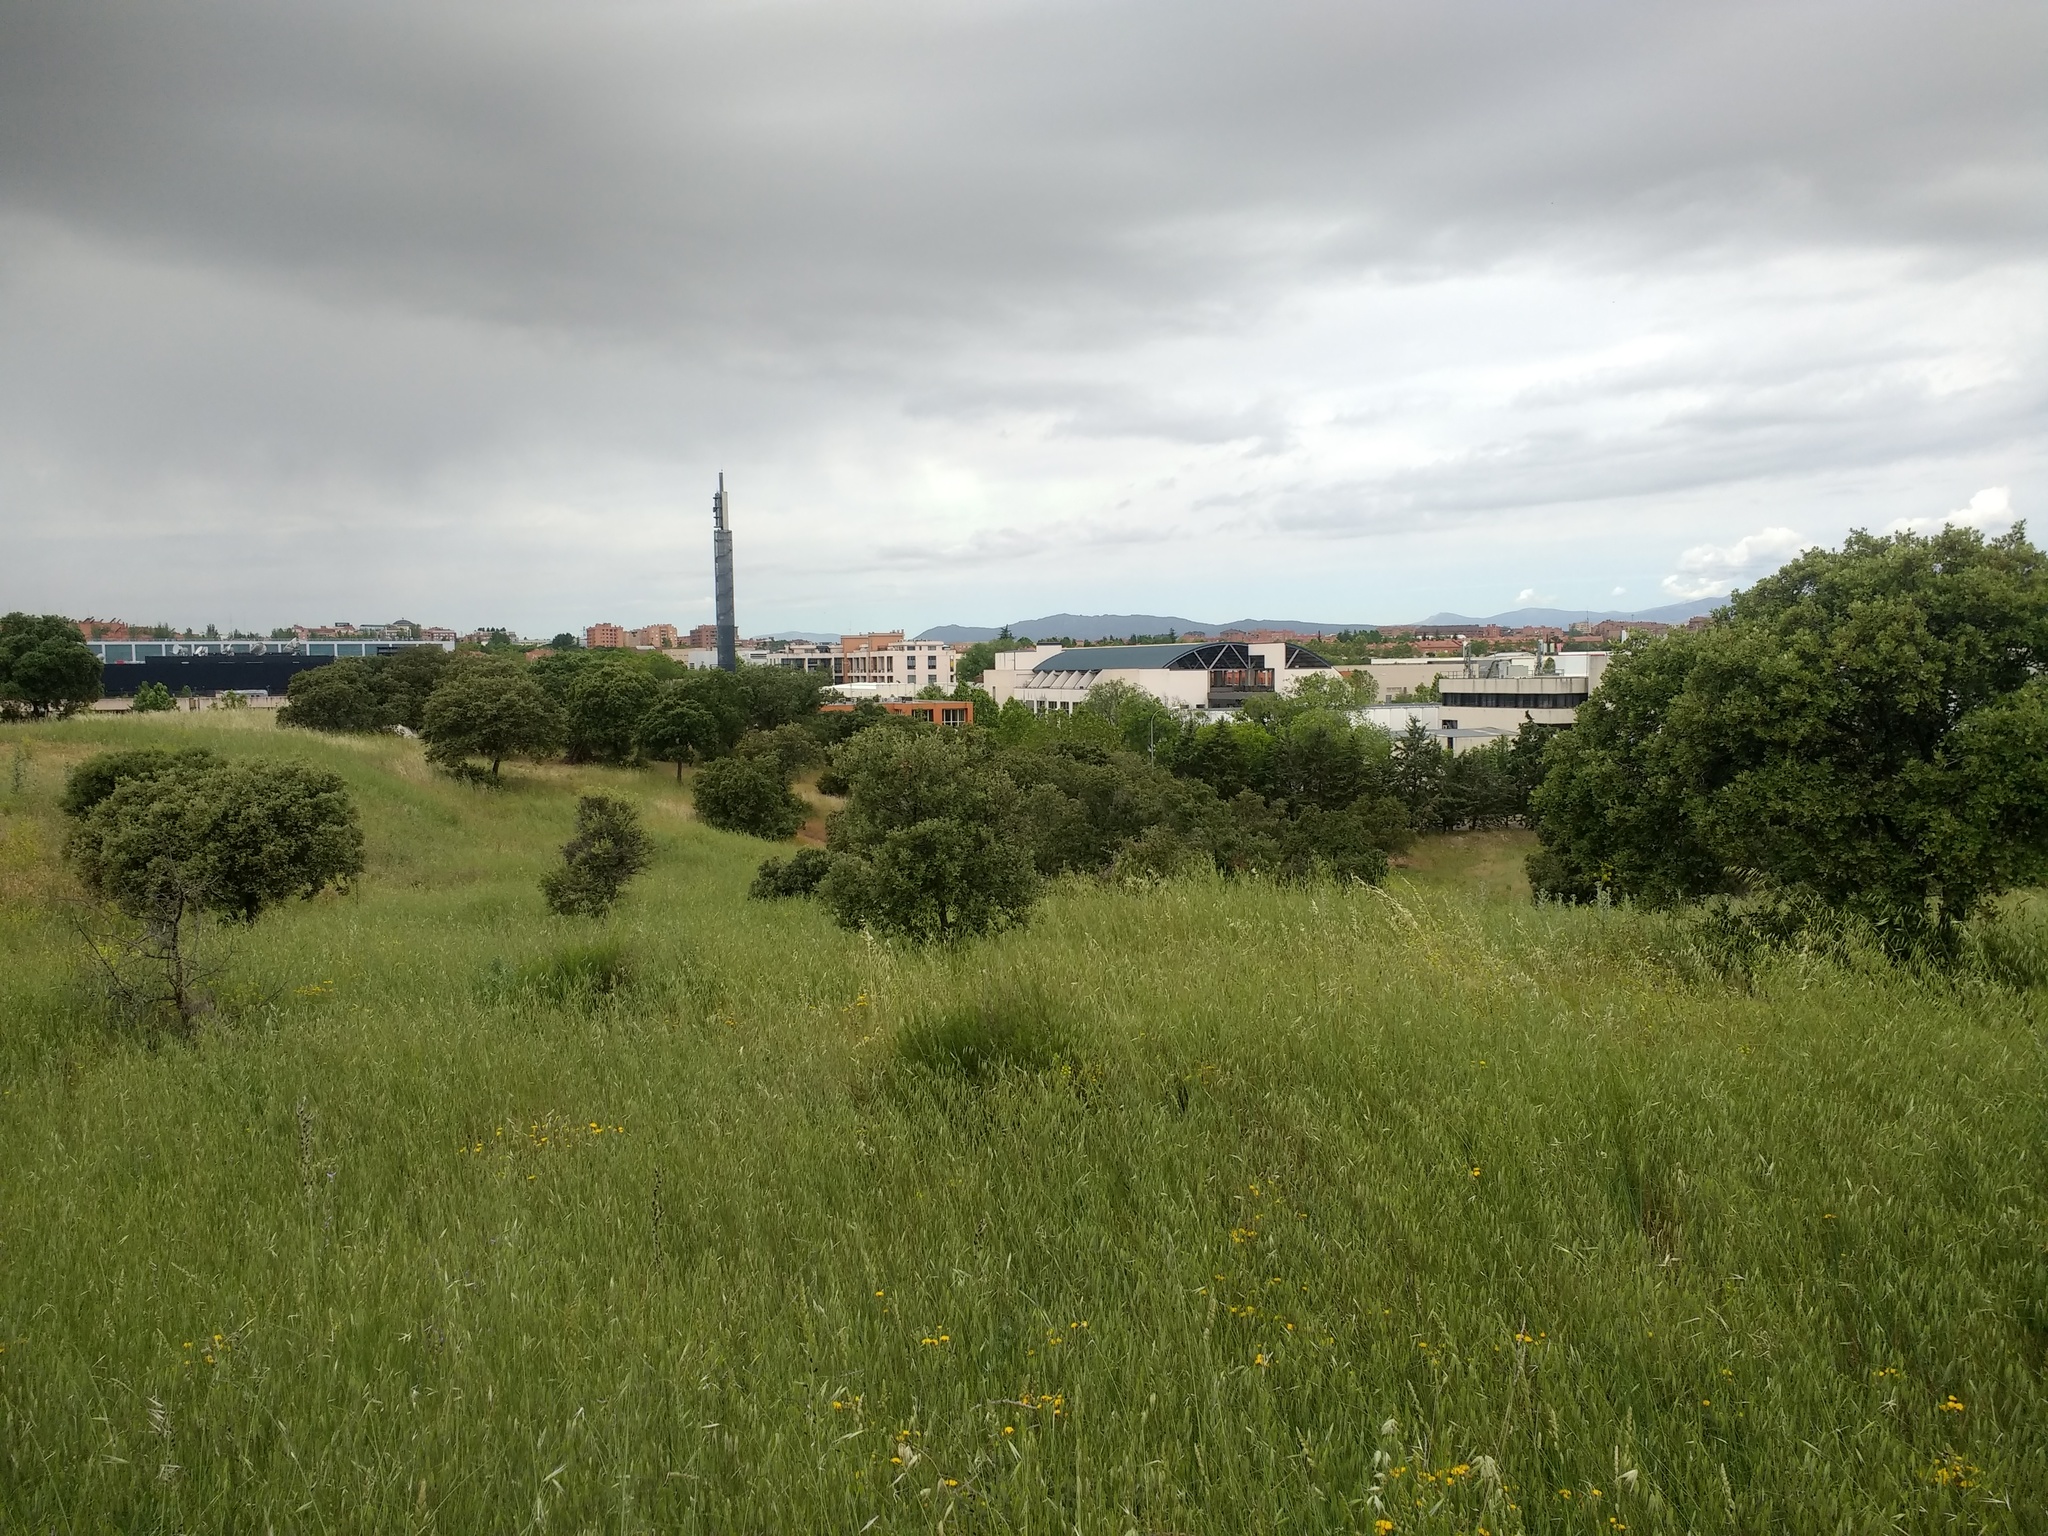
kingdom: Plantae
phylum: Tracheophyta
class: Magnoliopsida
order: Fagales
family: Fagaceae
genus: Quercus
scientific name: Quercus rotundifolia
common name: Holm oak
